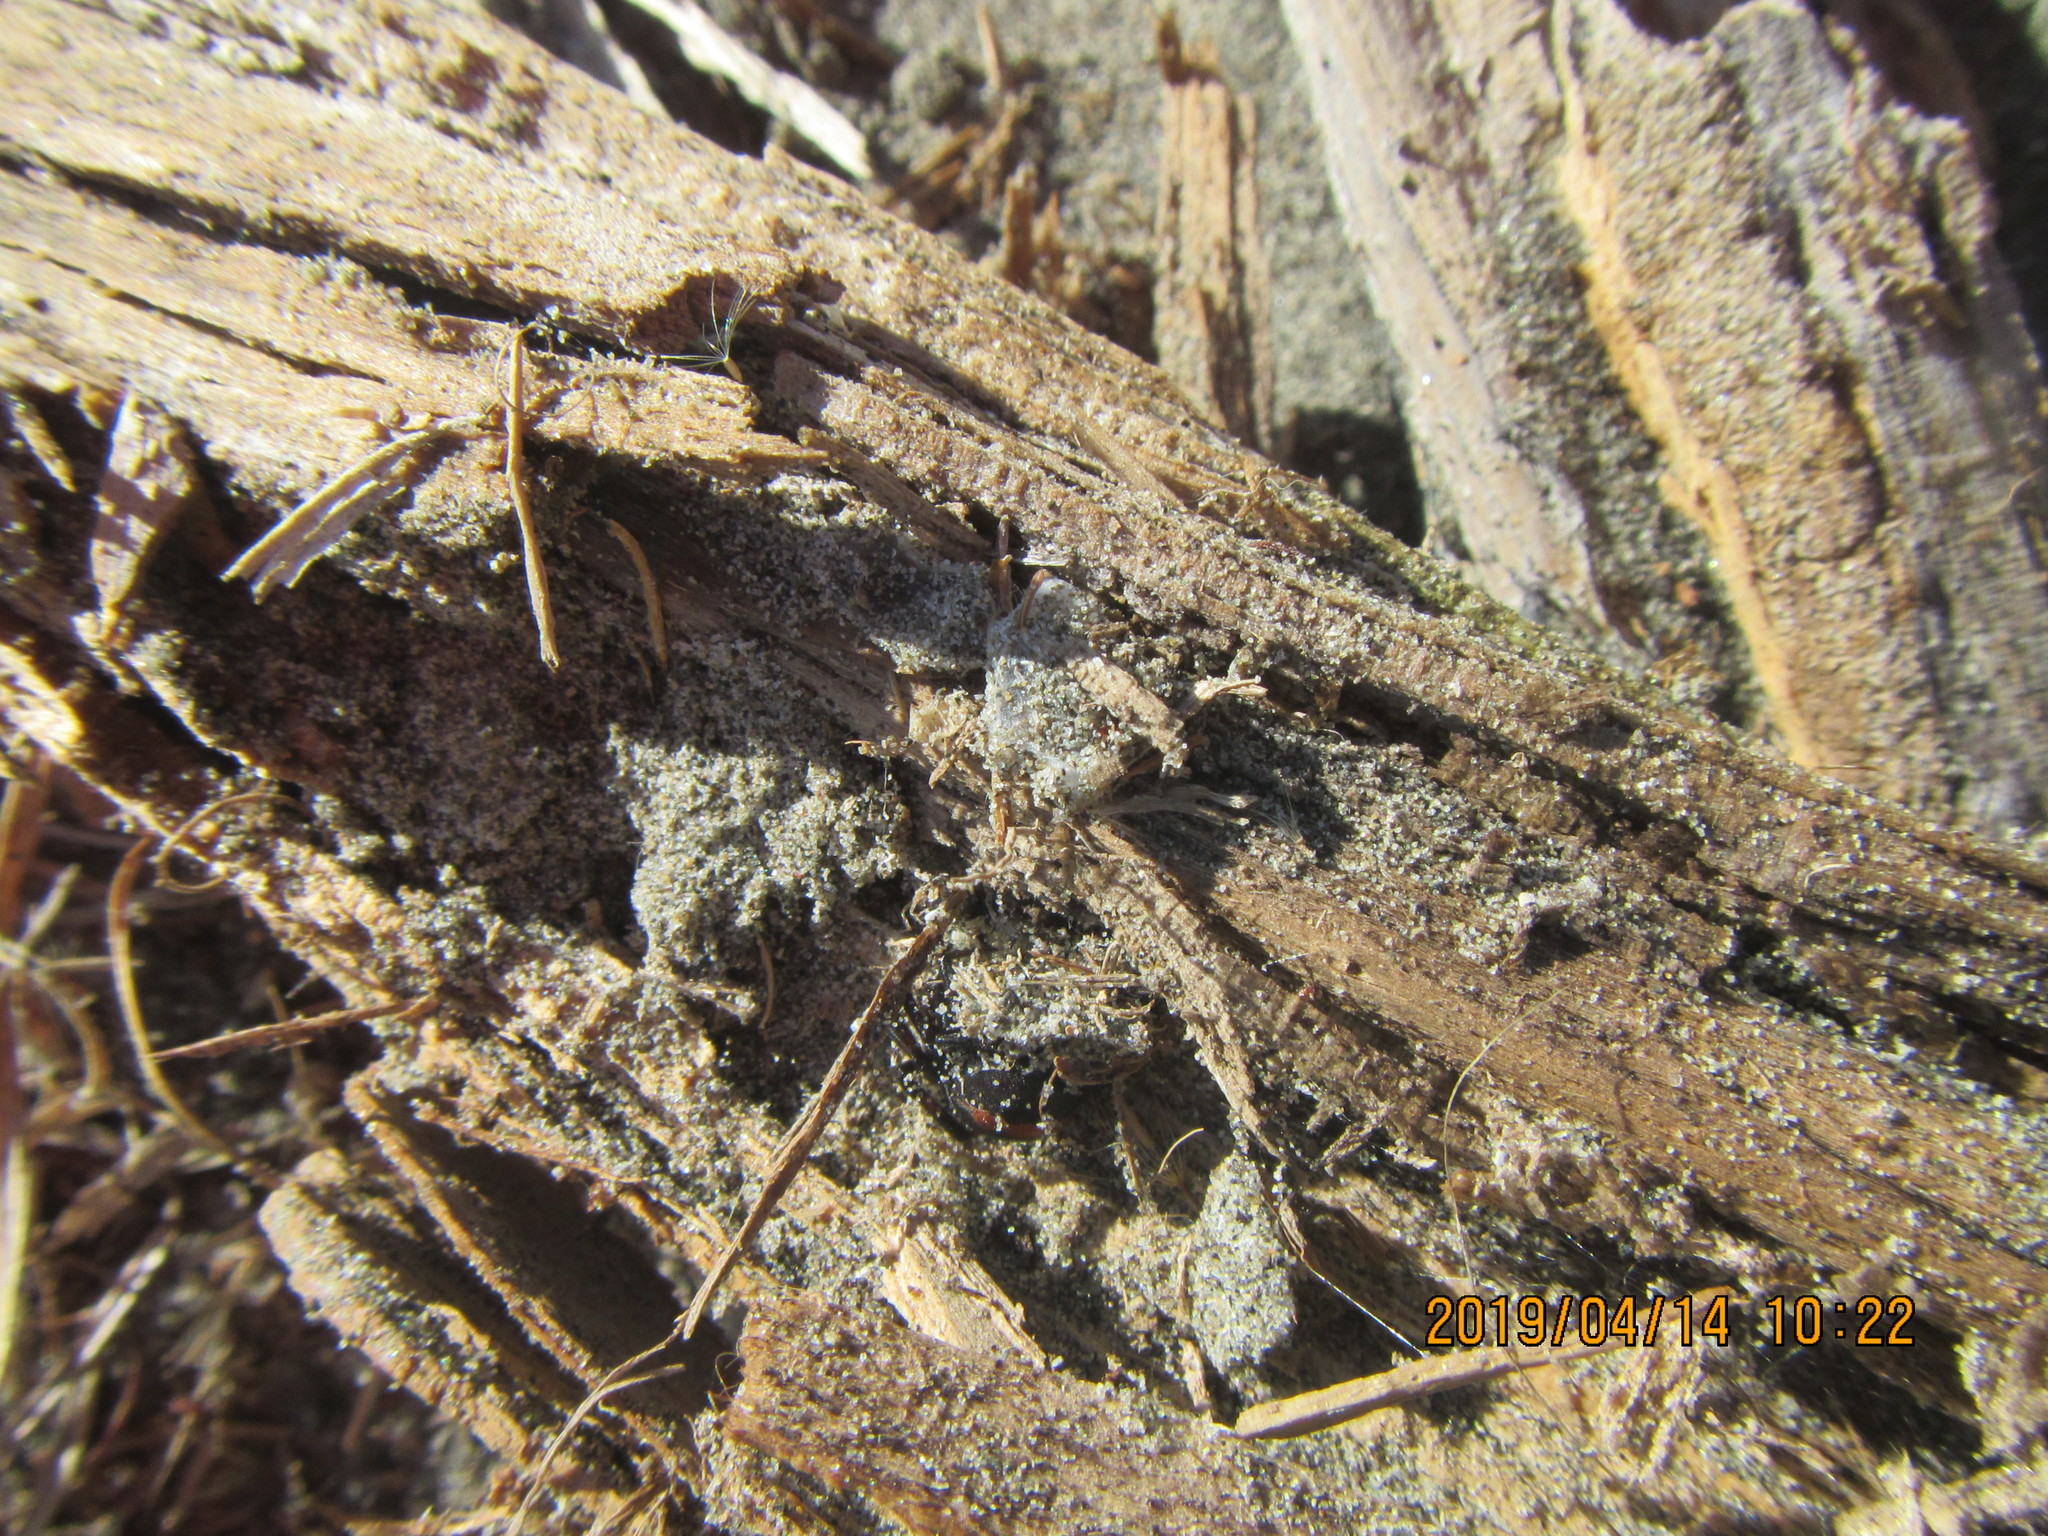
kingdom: Animalia
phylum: Arthropoda
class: Arachnida
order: Araneae
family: Theridiidae
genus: Latrodectus
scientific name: Latrodectus katipo
